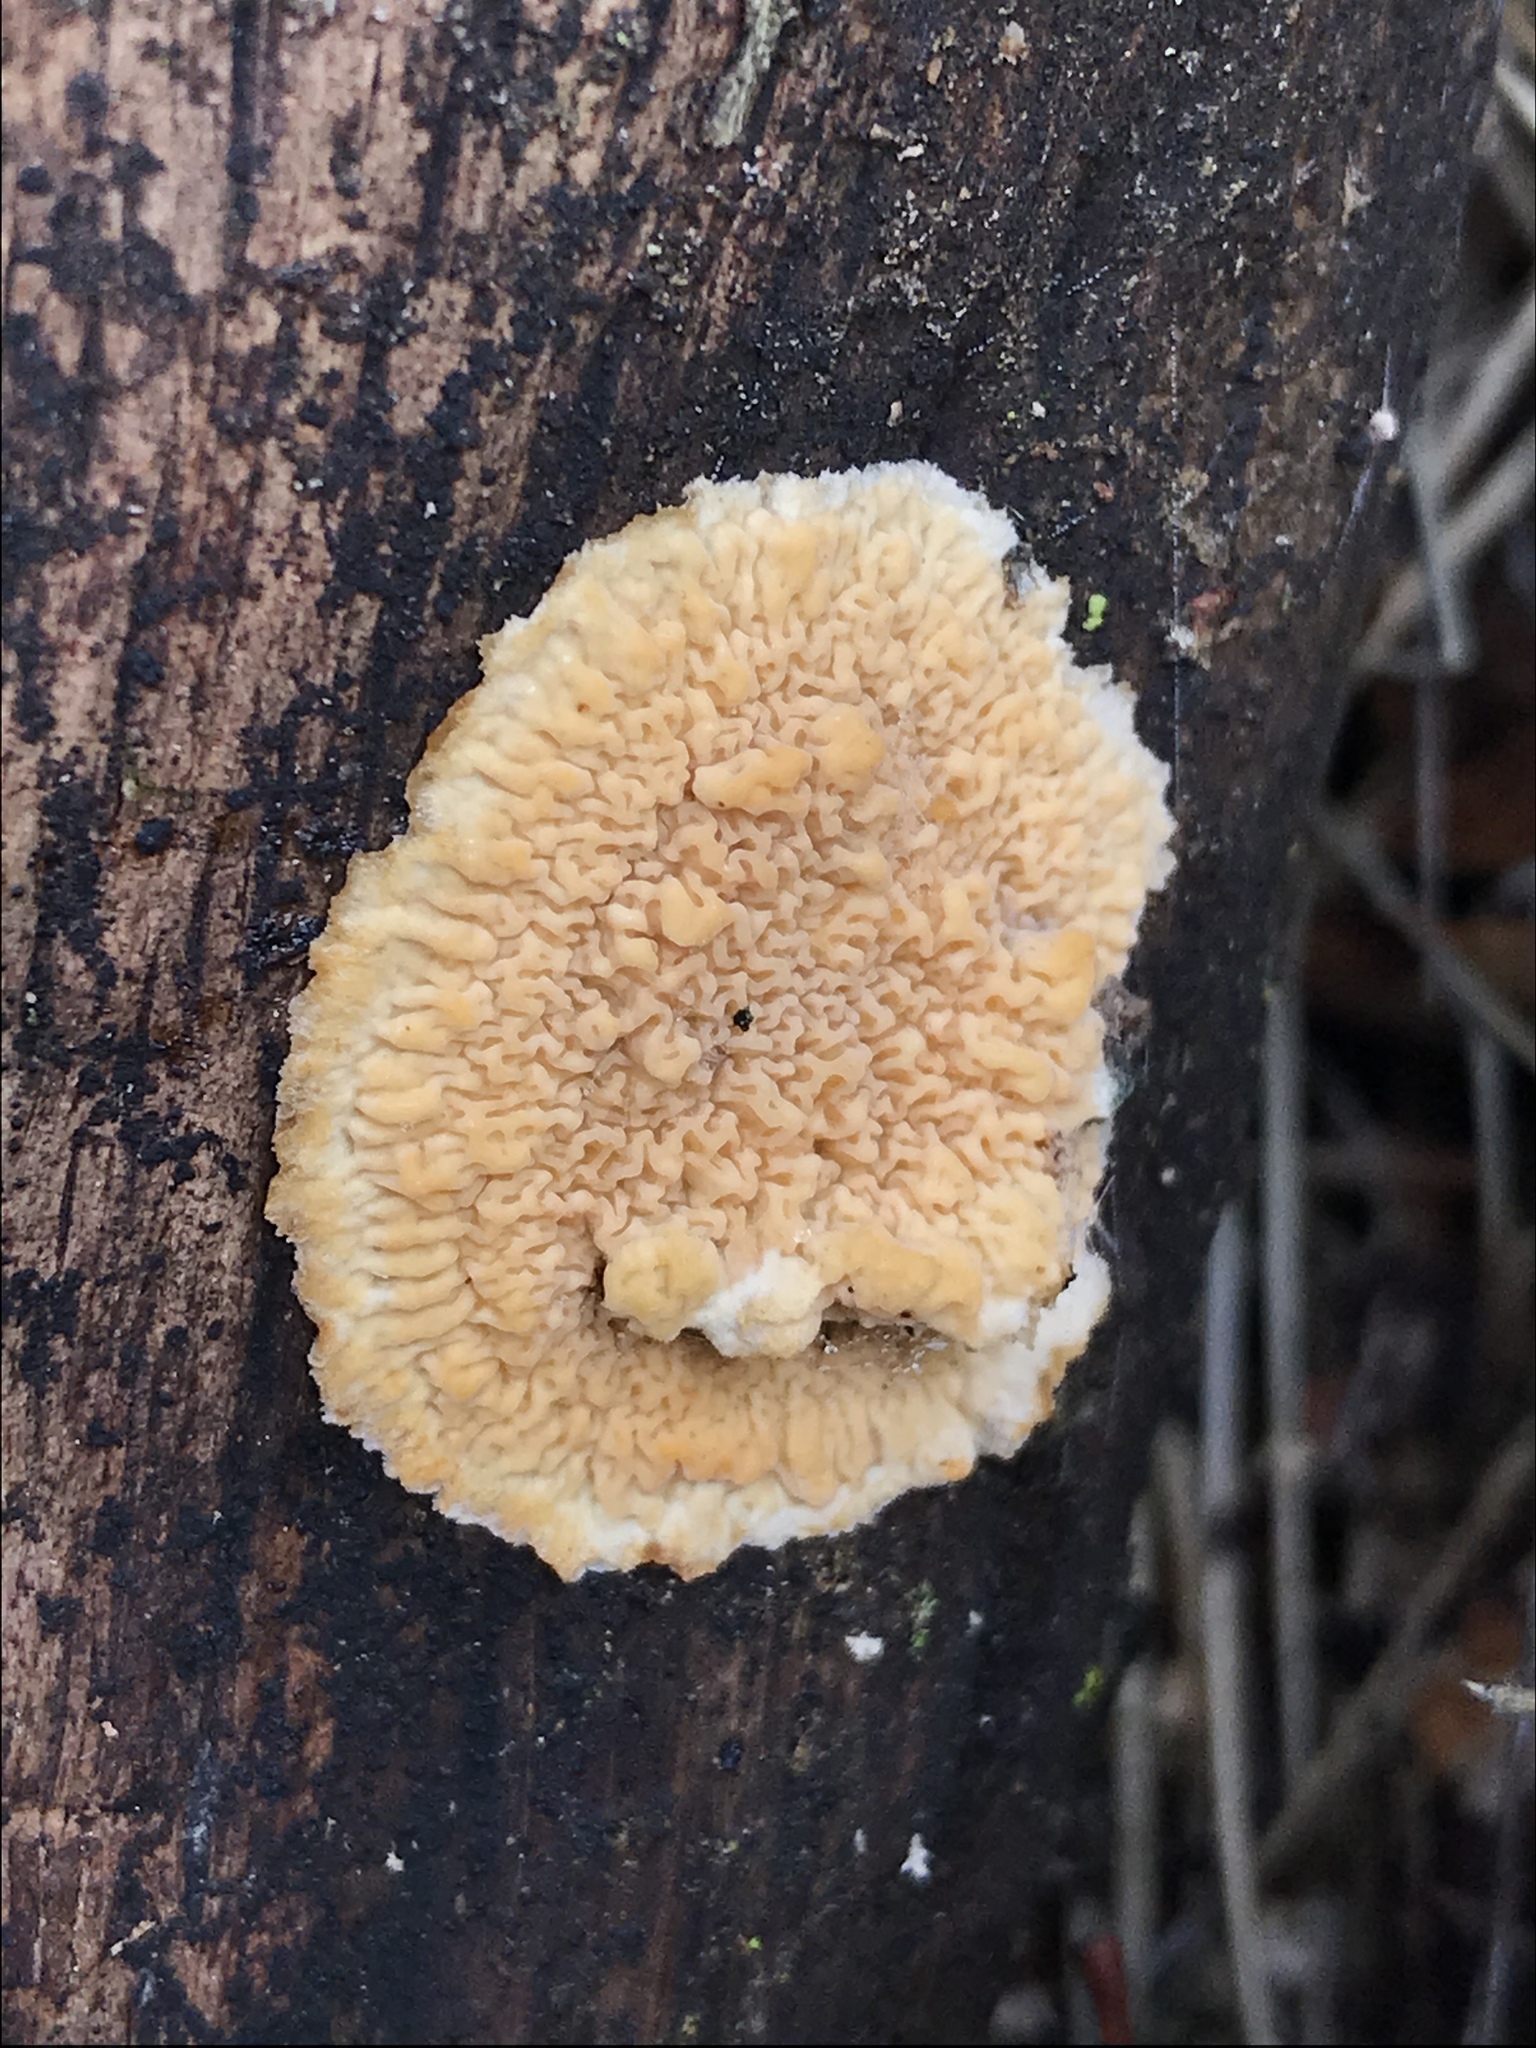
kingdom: Fungi
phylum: Basidiomycota
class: Agaricomycetes
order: Polyporales
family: Meruliaceae
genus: Phlebia
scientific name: Phlebia radiata
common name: Wrinkled crust
